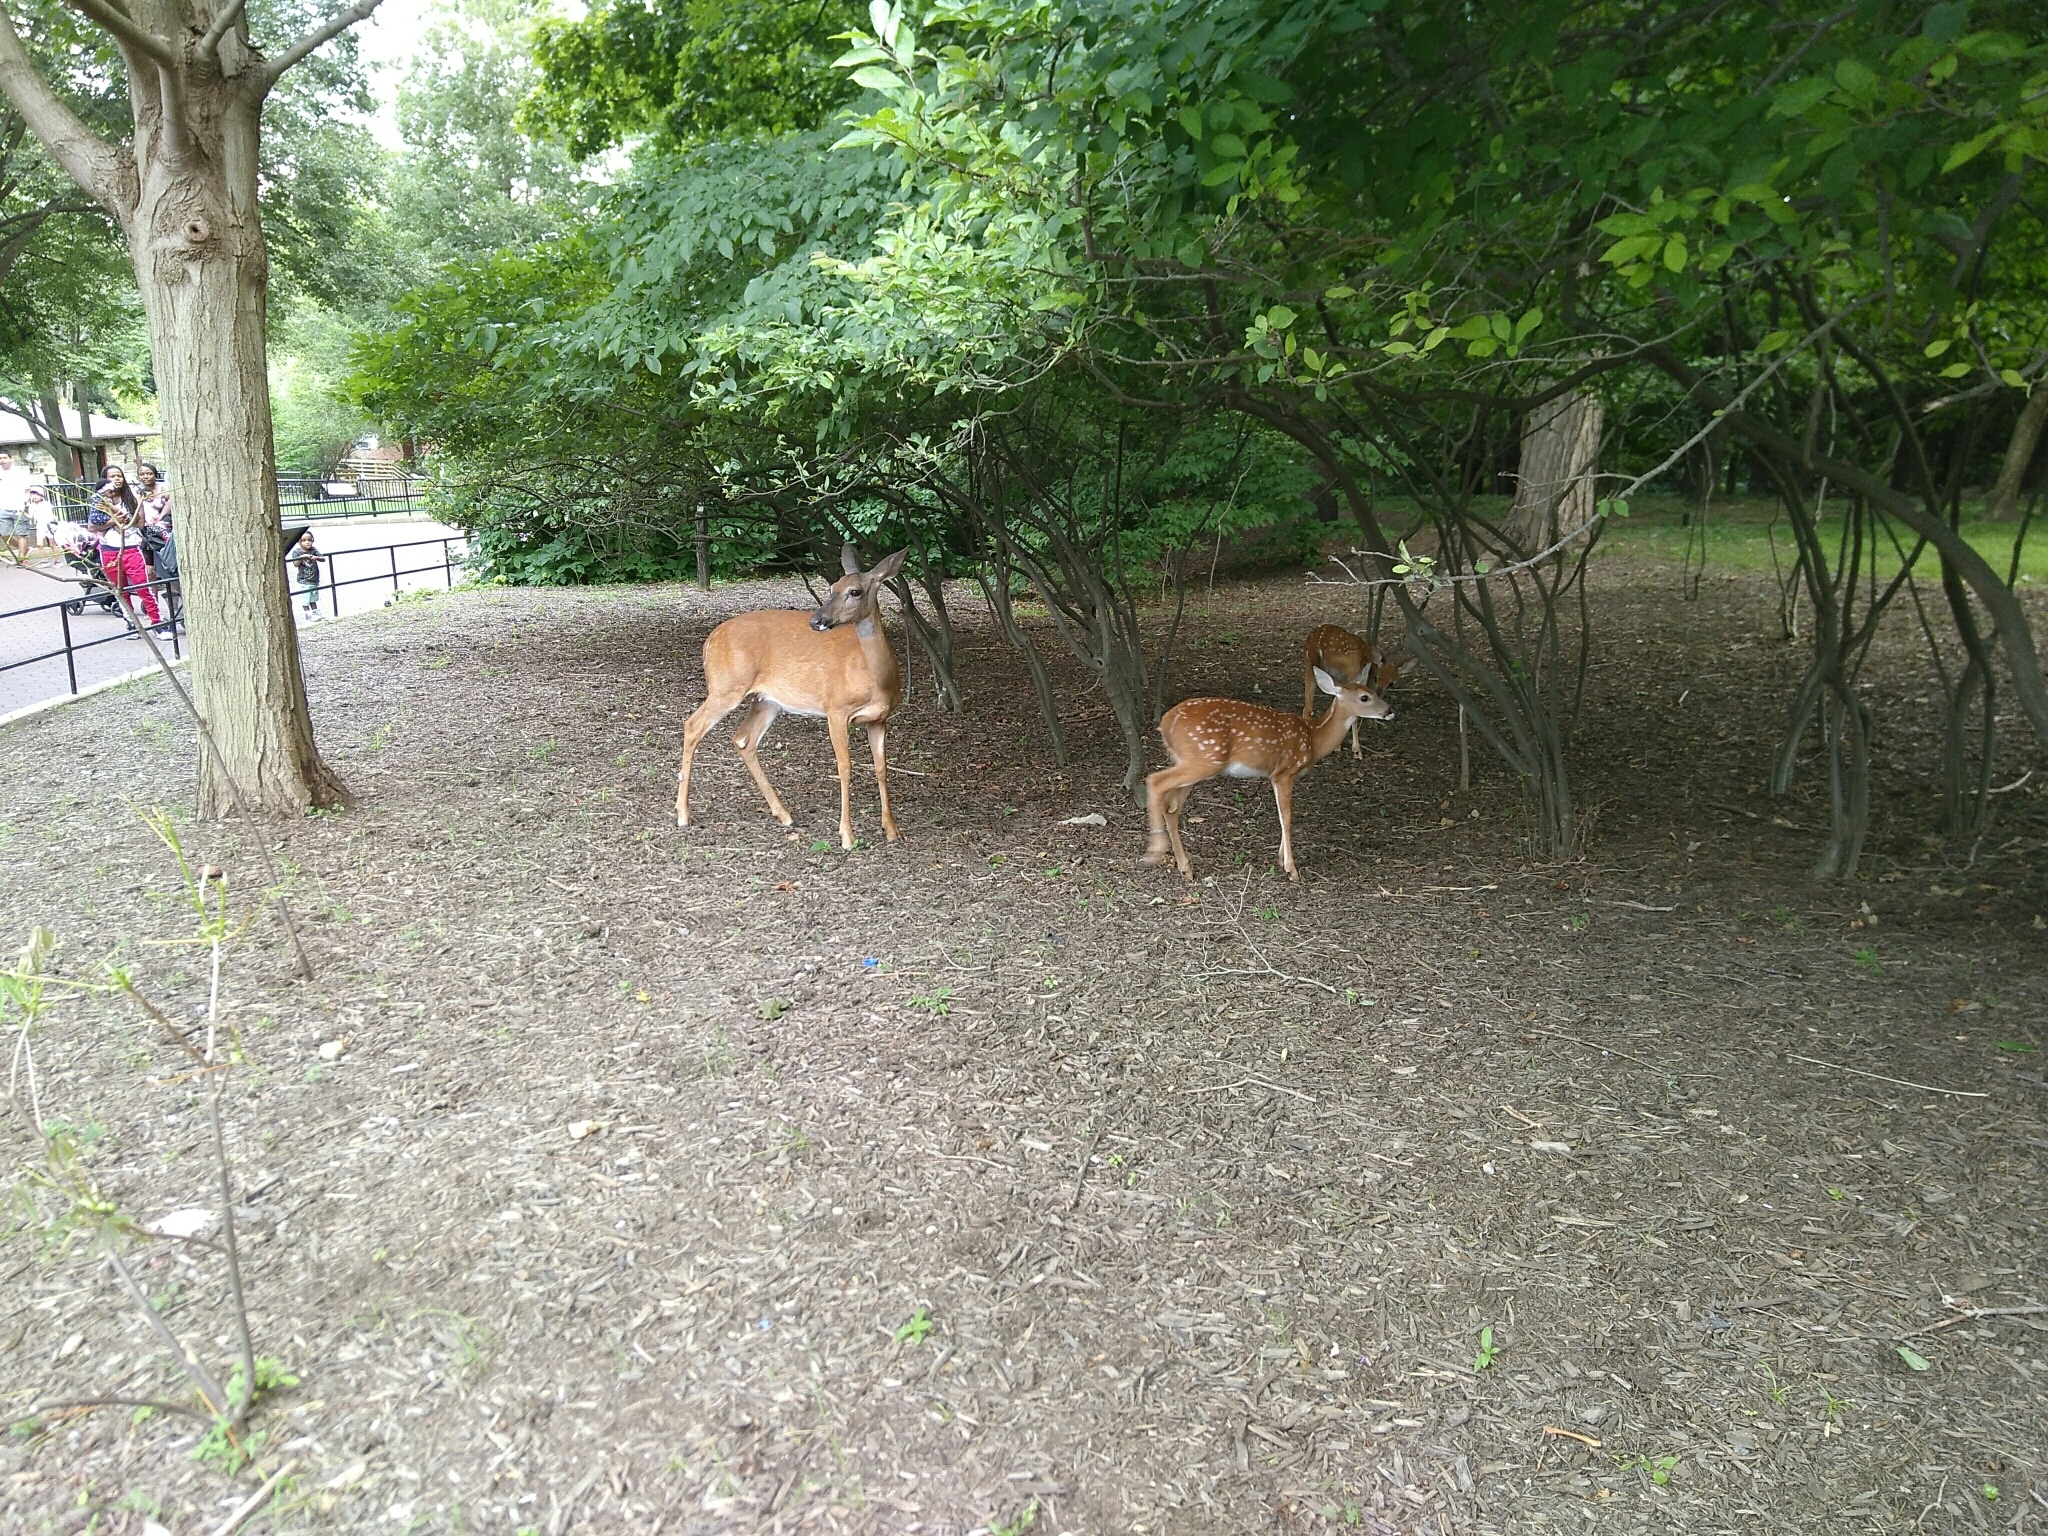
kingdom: Animalia
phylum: Chordata
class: Mammalia
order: Artiodactyla
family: Cervidae
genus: Odocoileus
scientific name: Odocoileus virginianus
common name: White-tailed deer
